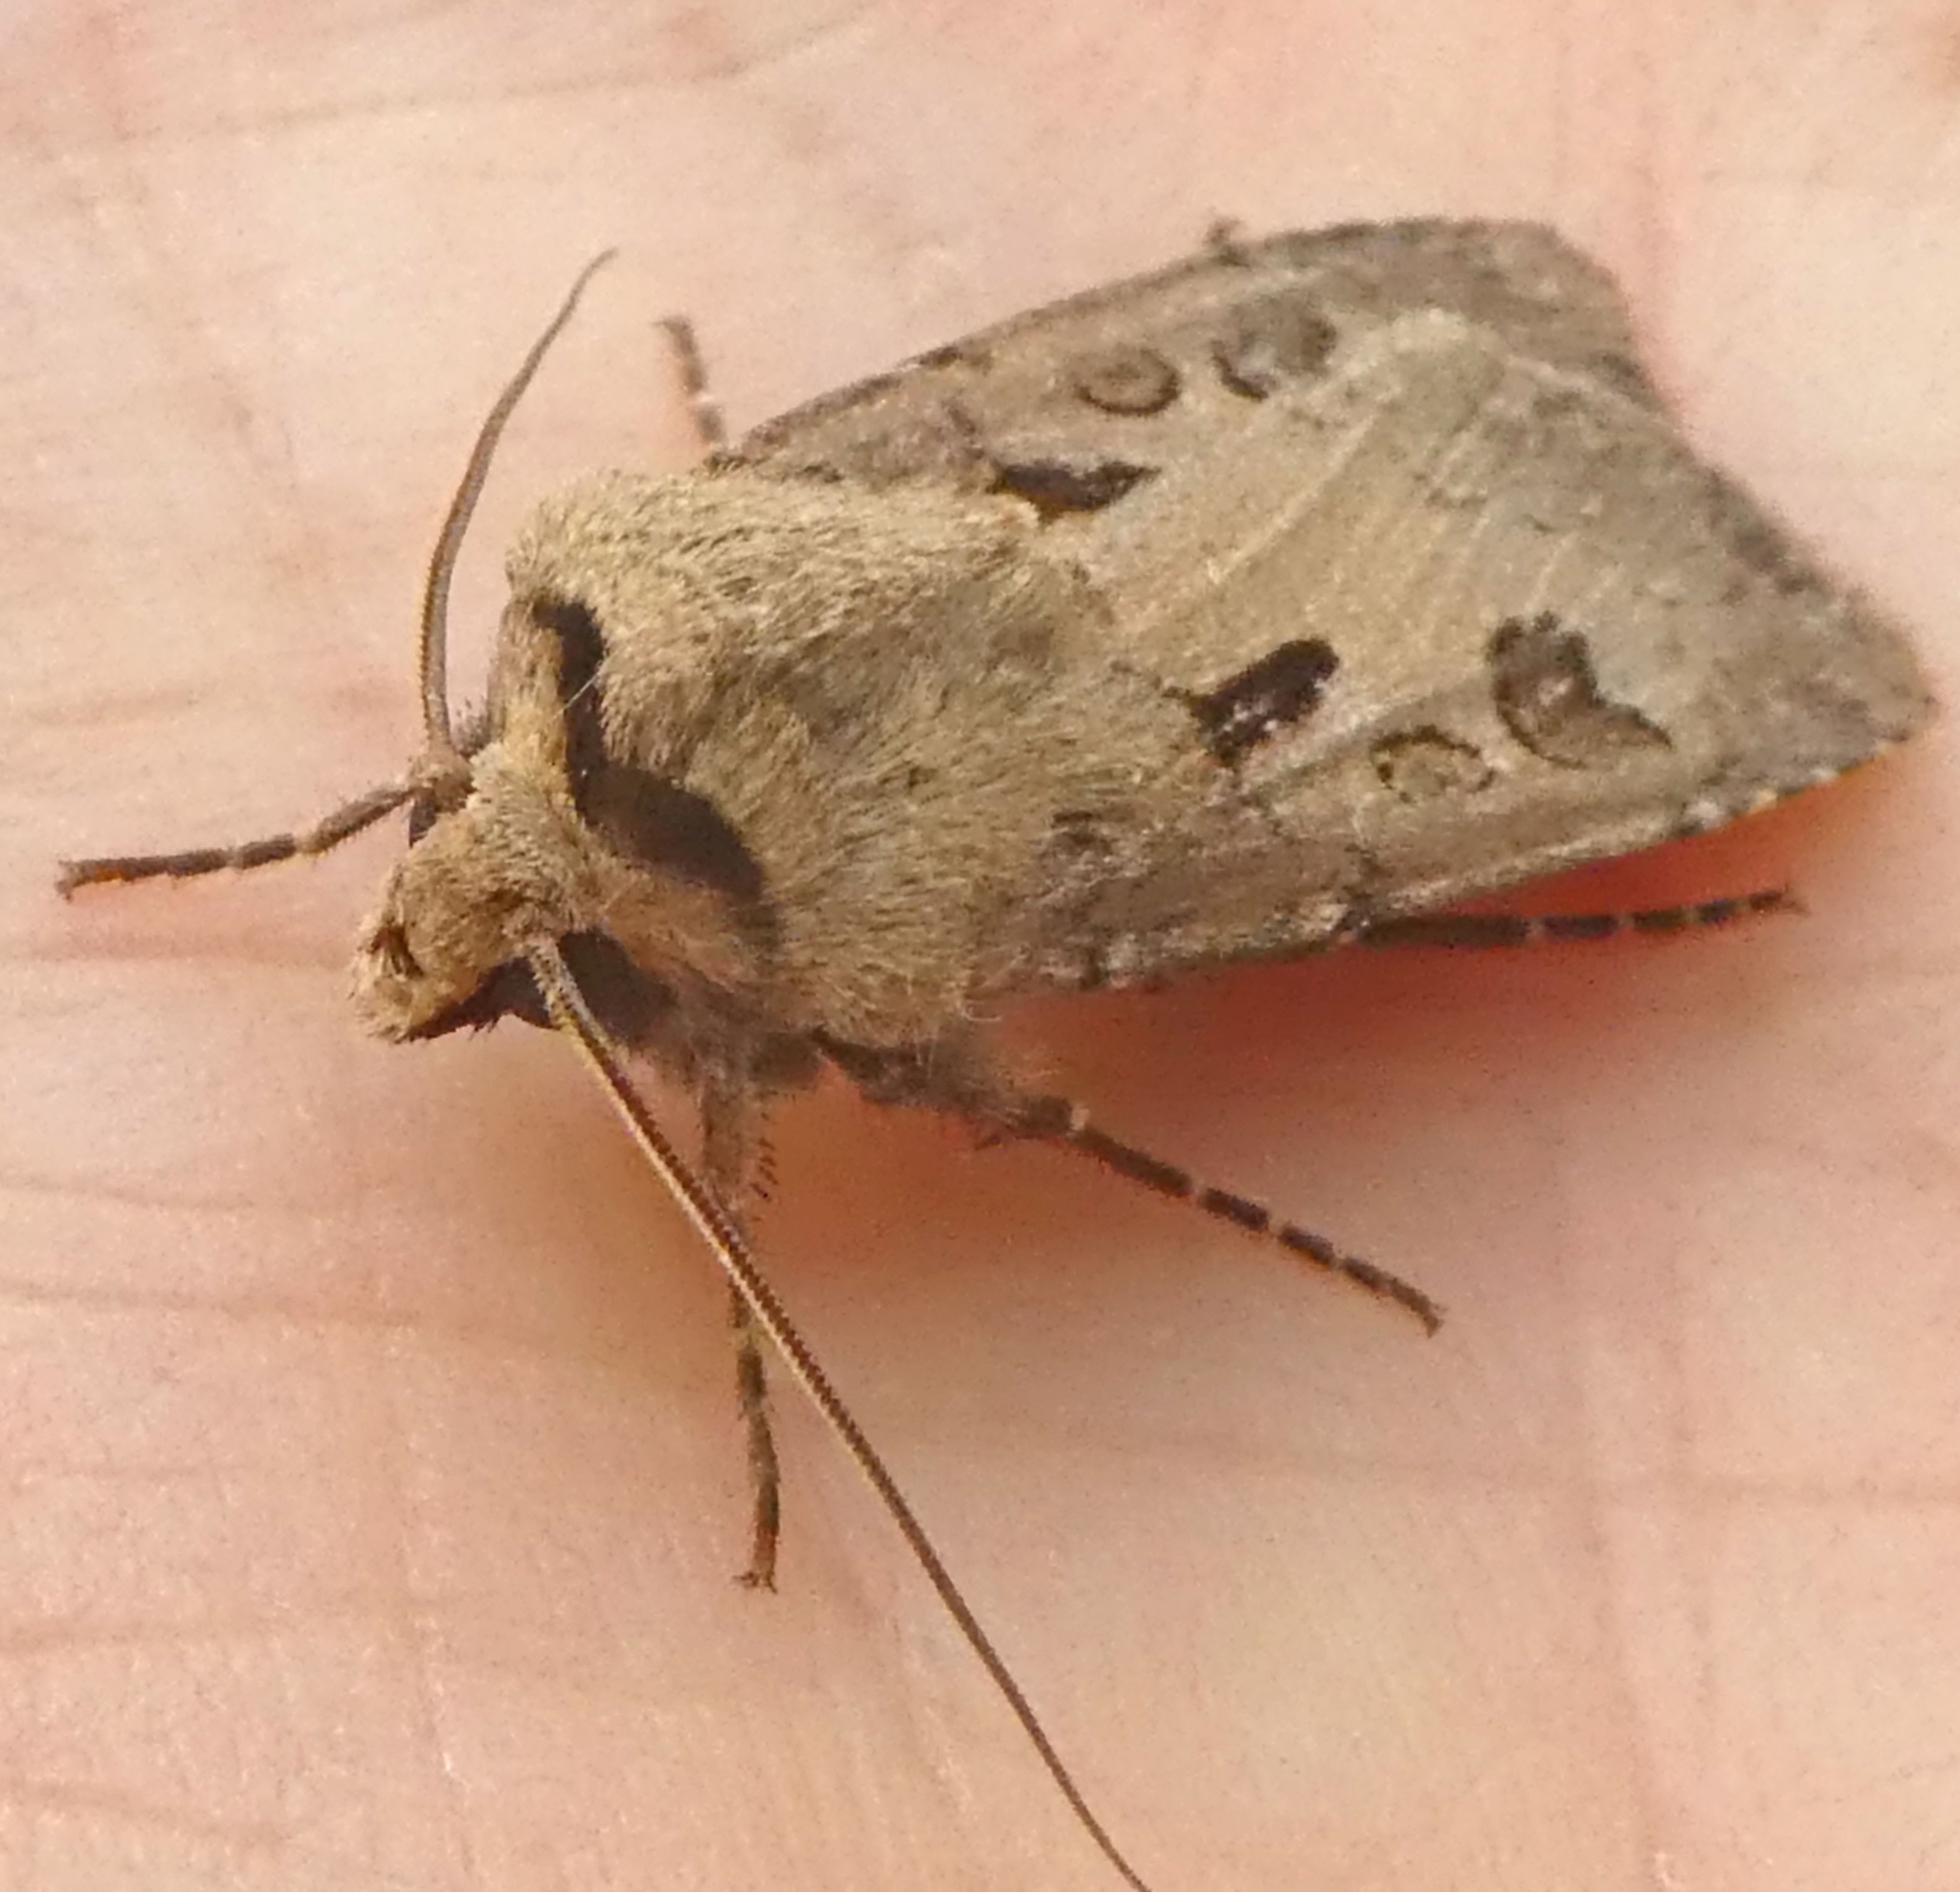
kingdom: Animalia
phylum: Arthropoda
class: Insecta
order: Lepidoptera
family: Noctuidae
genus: Agrotis
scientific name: Agrotis exclamationis
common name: Heart and dart
